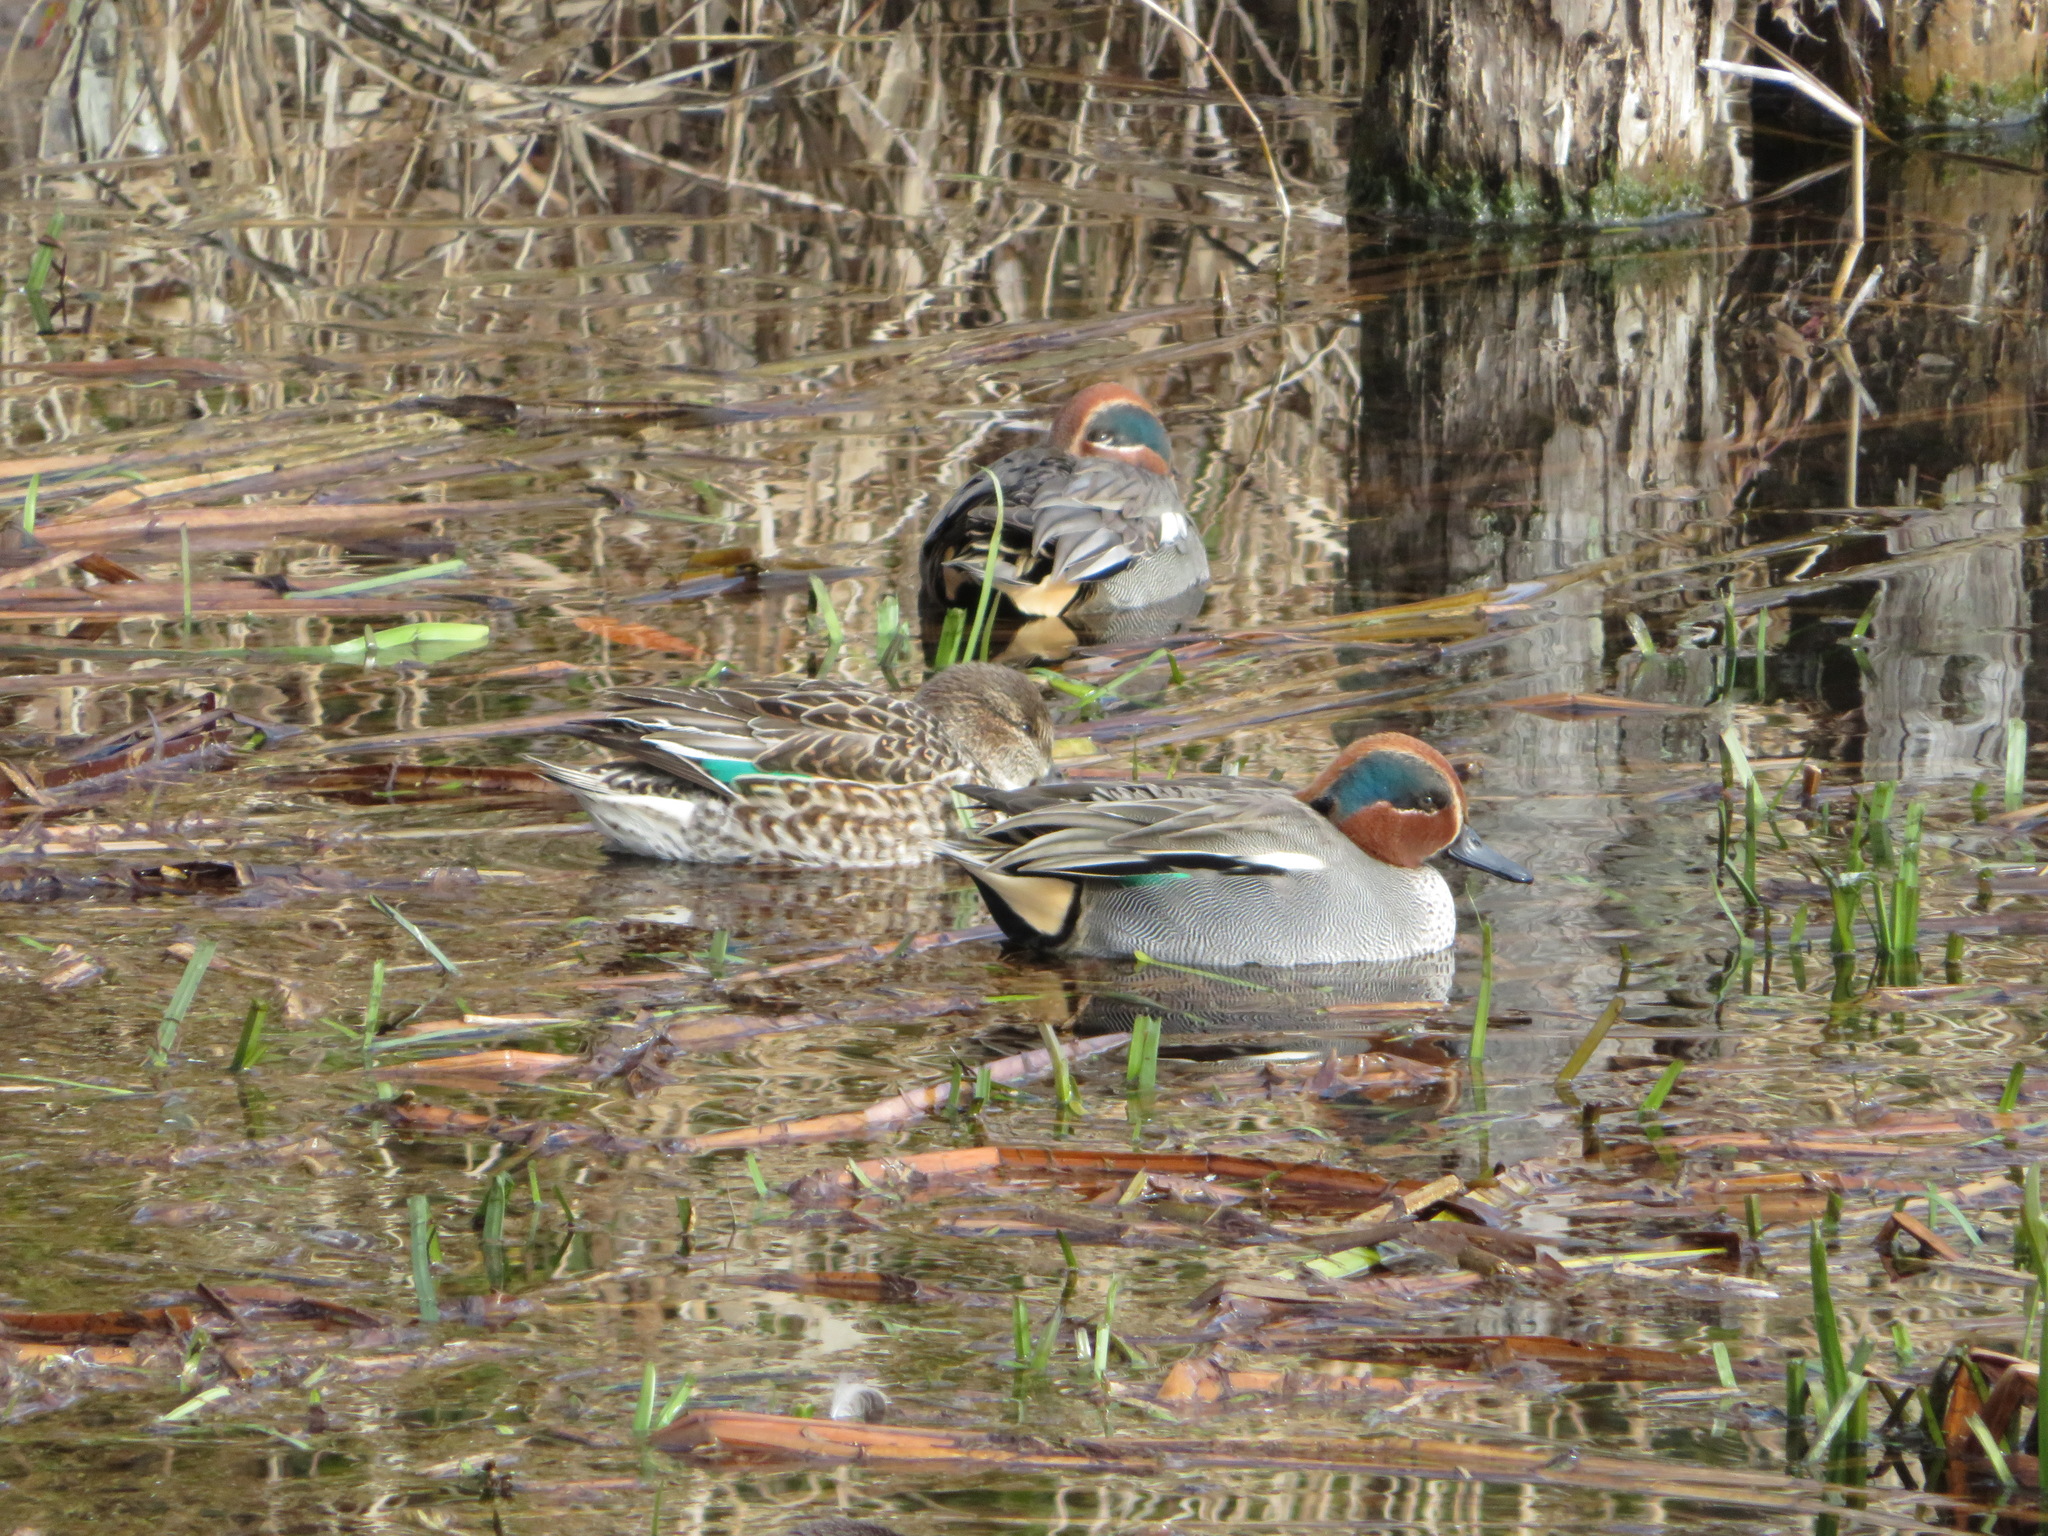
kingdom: Animalia
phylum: Chordata
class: Aves
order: Anseriformes
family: Anatidae
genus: Anas
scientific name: Anas crecca
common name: Eurasian teal
